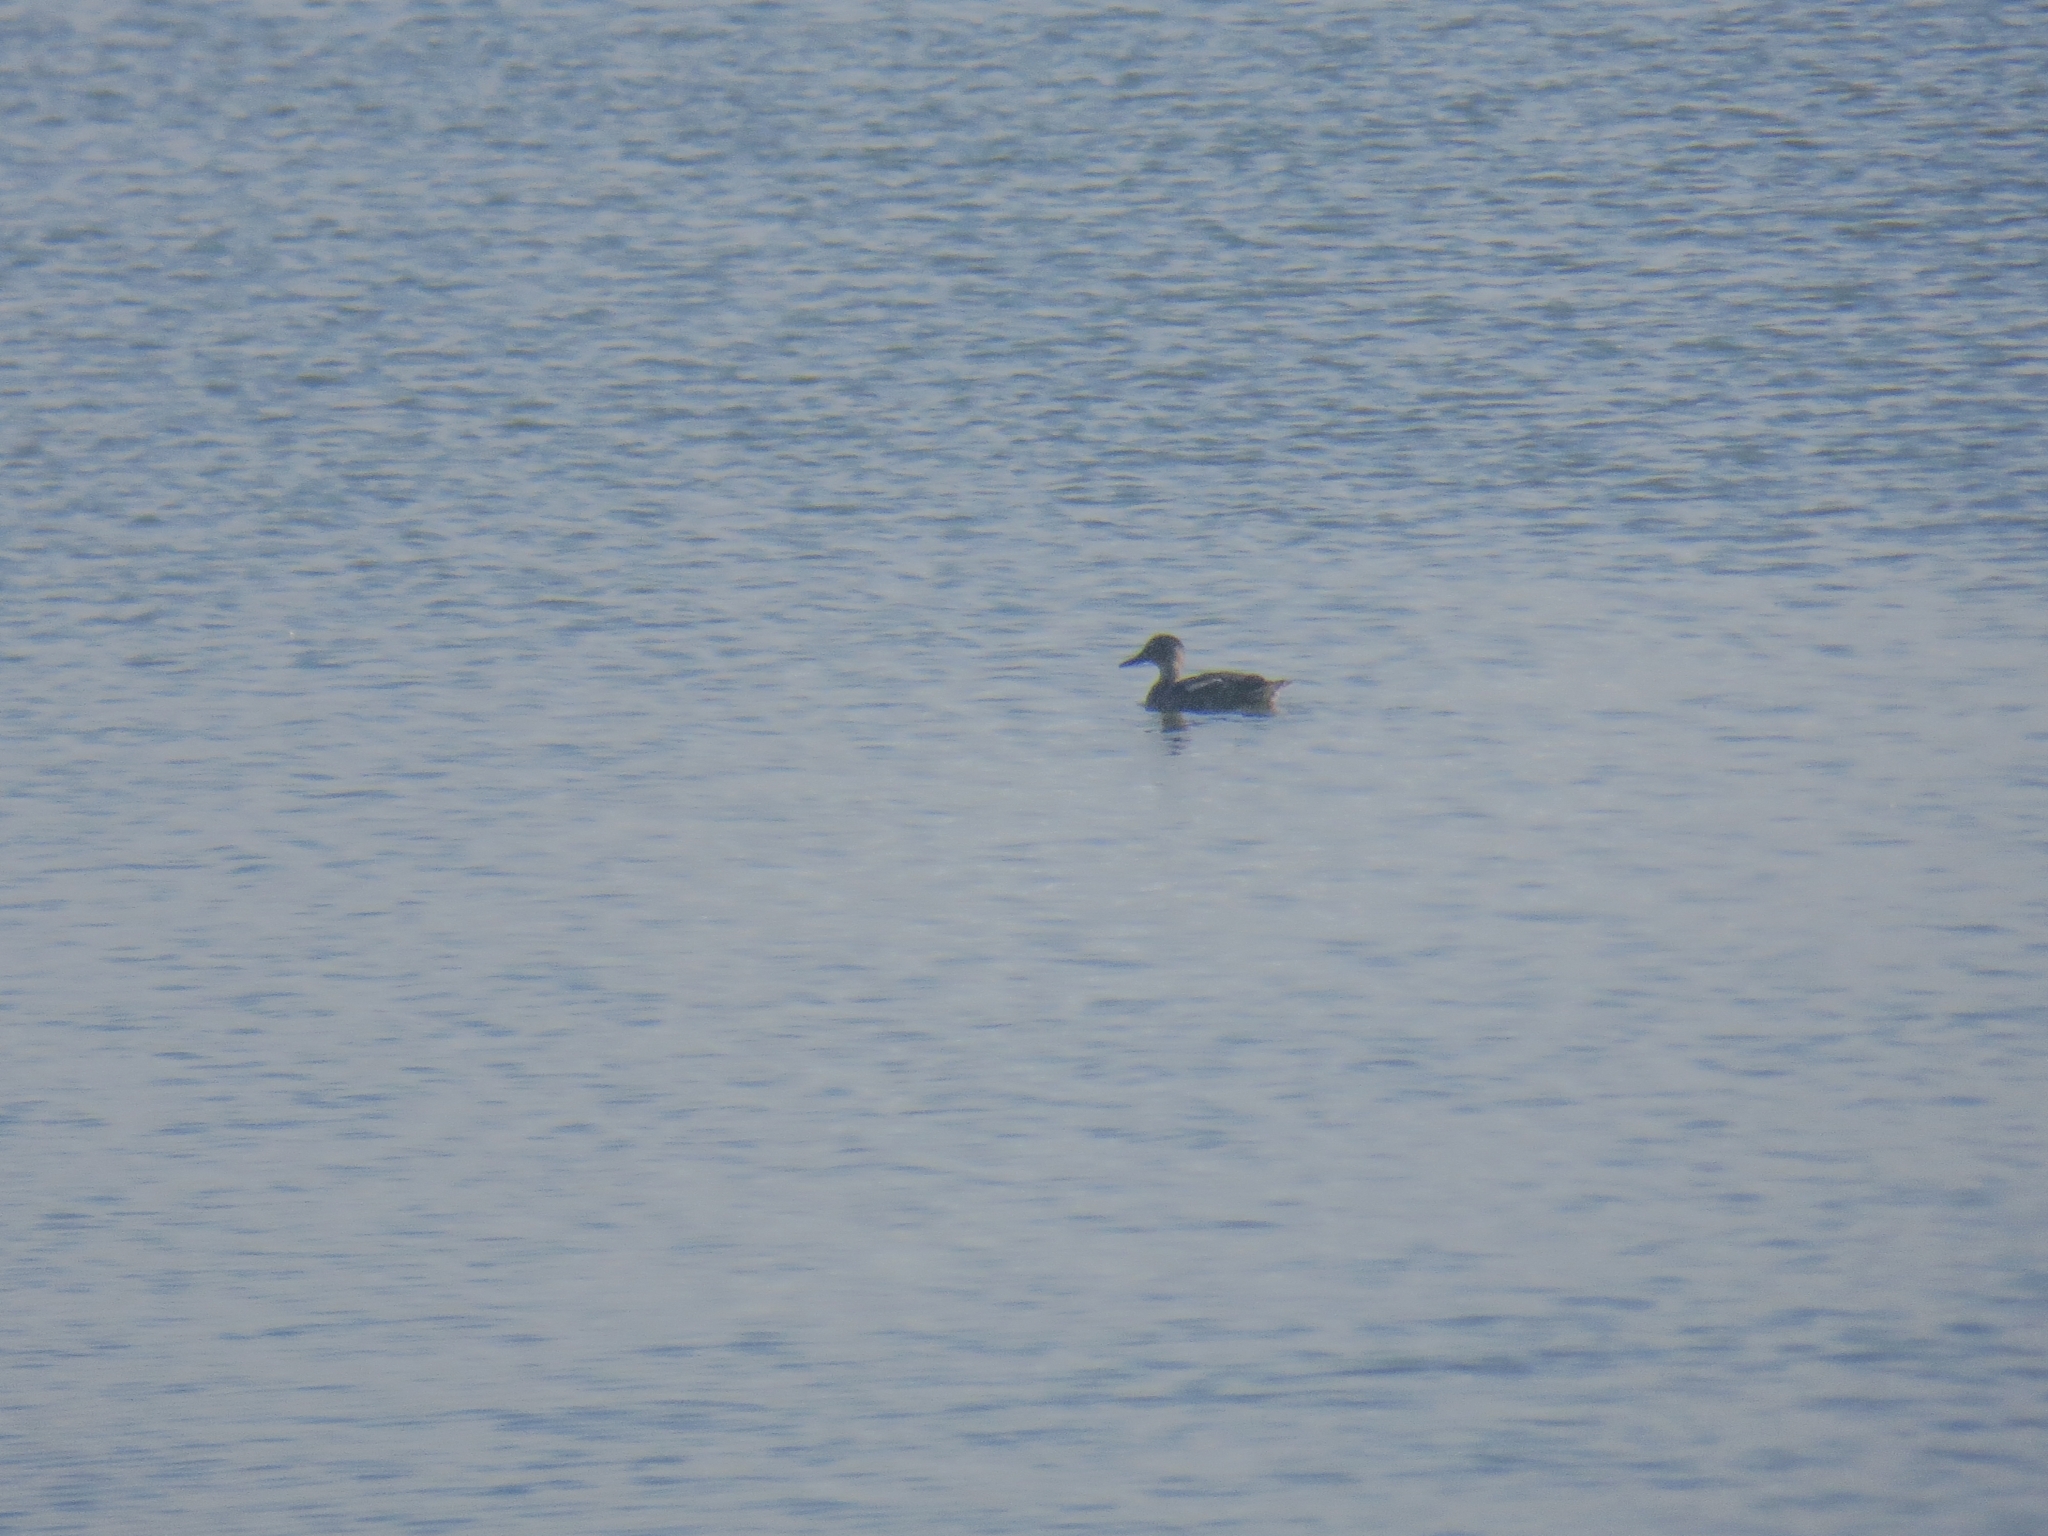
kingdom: Animalia
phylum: Chordata
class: Aves
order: Anseriformes
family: Anatidae
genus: Spatula
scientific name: Spatula querquedula
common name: Garganey
